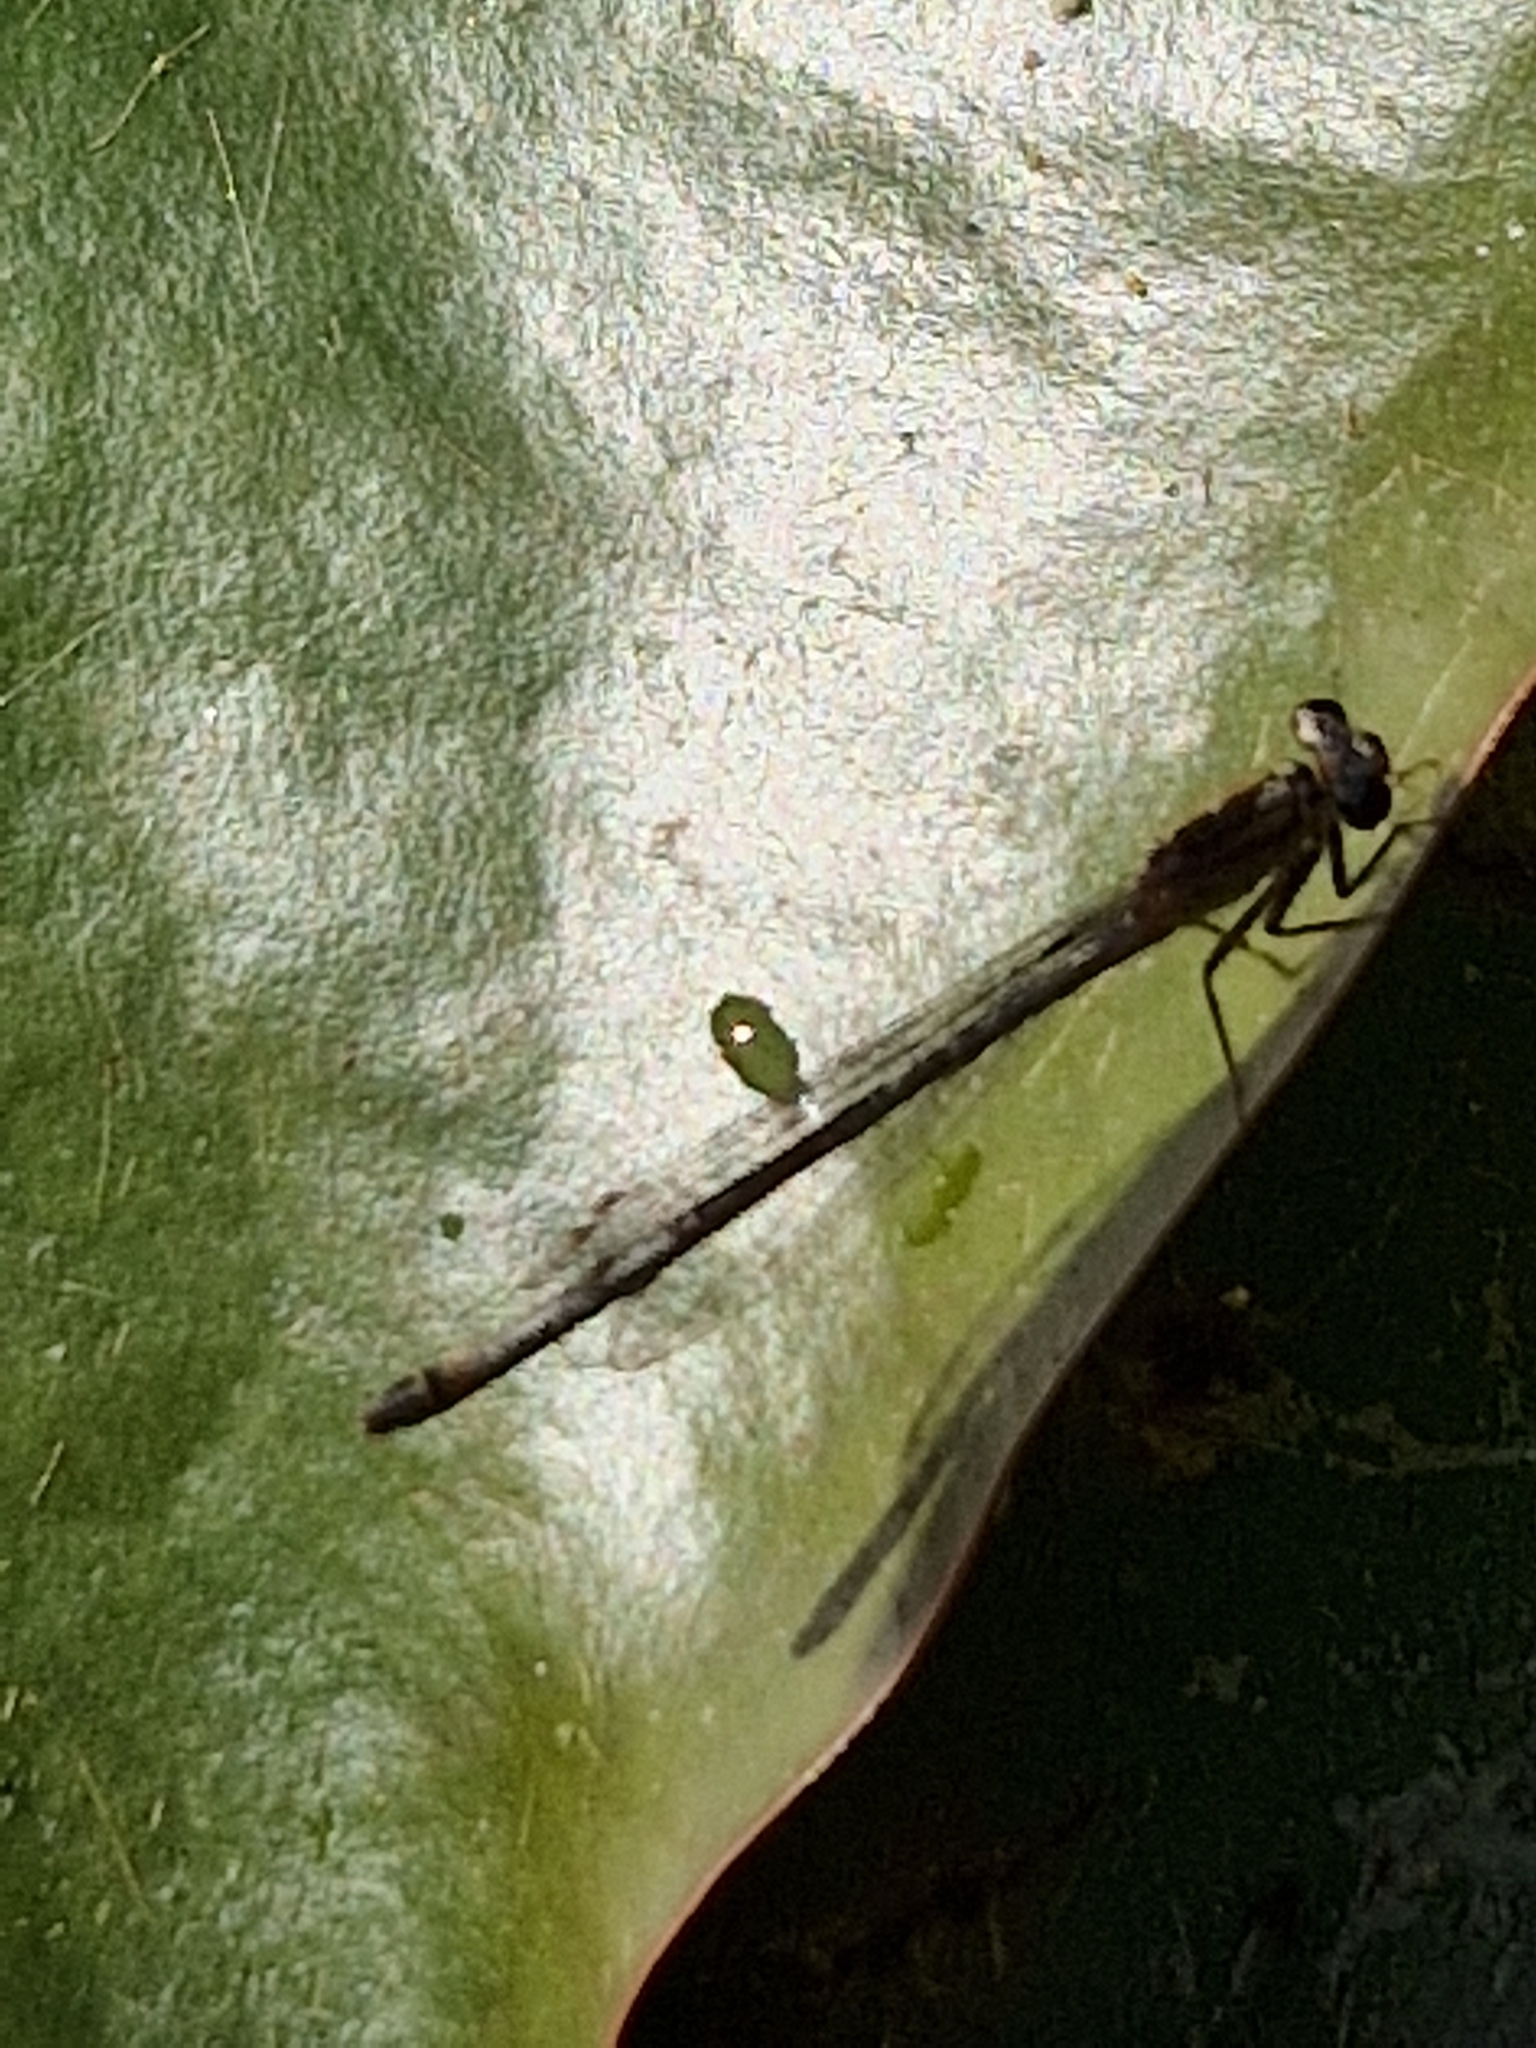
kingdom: Animalia
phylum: Arthropoda
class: Insecta
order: Odonata
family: Coenagrionidae
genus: Ischnura
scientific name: Ischnura elegans
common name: Blue-tailed damselfly
